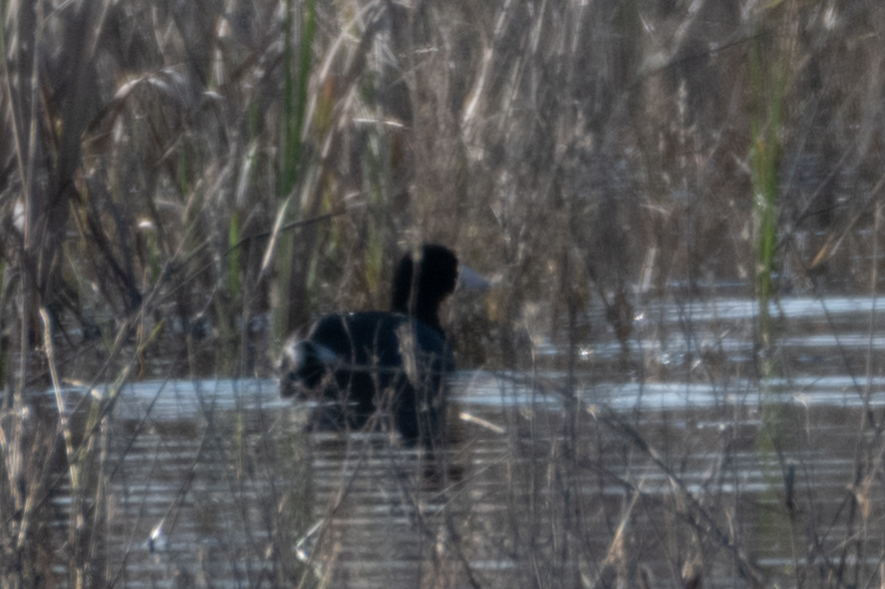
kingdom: Animalia
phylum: Chordata
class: Aves
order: Gruiformes
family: Rallidae
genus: Fulica
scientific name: Fulica americana
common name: American coot
